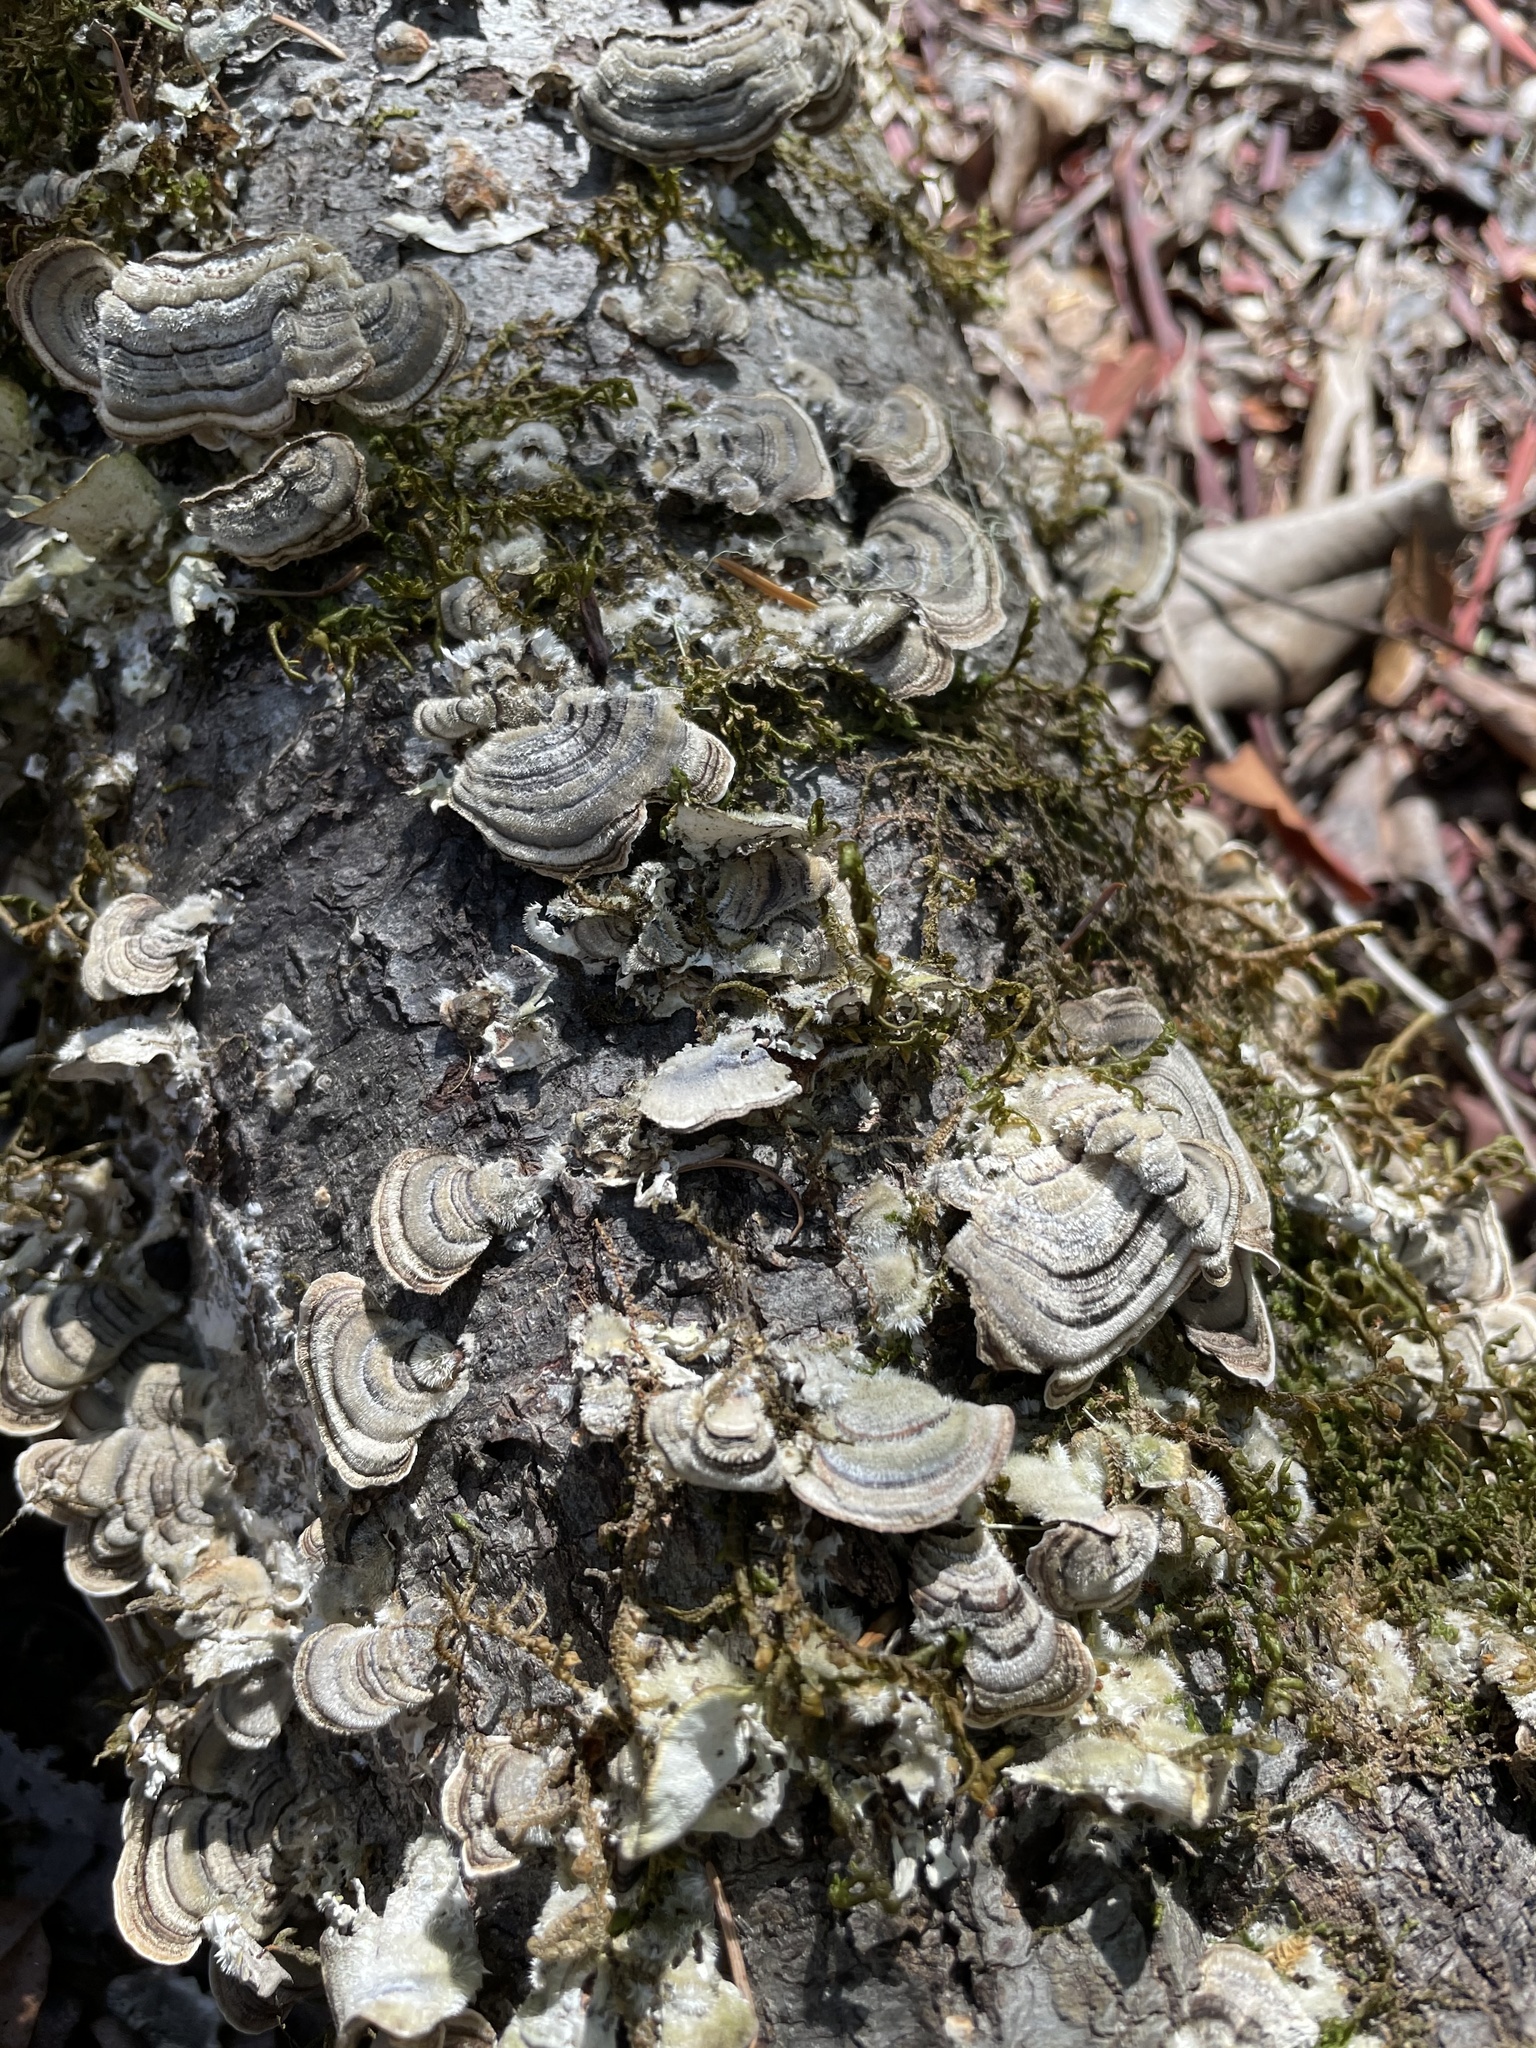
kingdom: Fungi
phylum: Basidiomycota
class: Agaricomycetes
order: Polyporales
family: Polyporaceae
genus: Trametes
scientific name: Trametes versicolor
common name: Turkeytail
